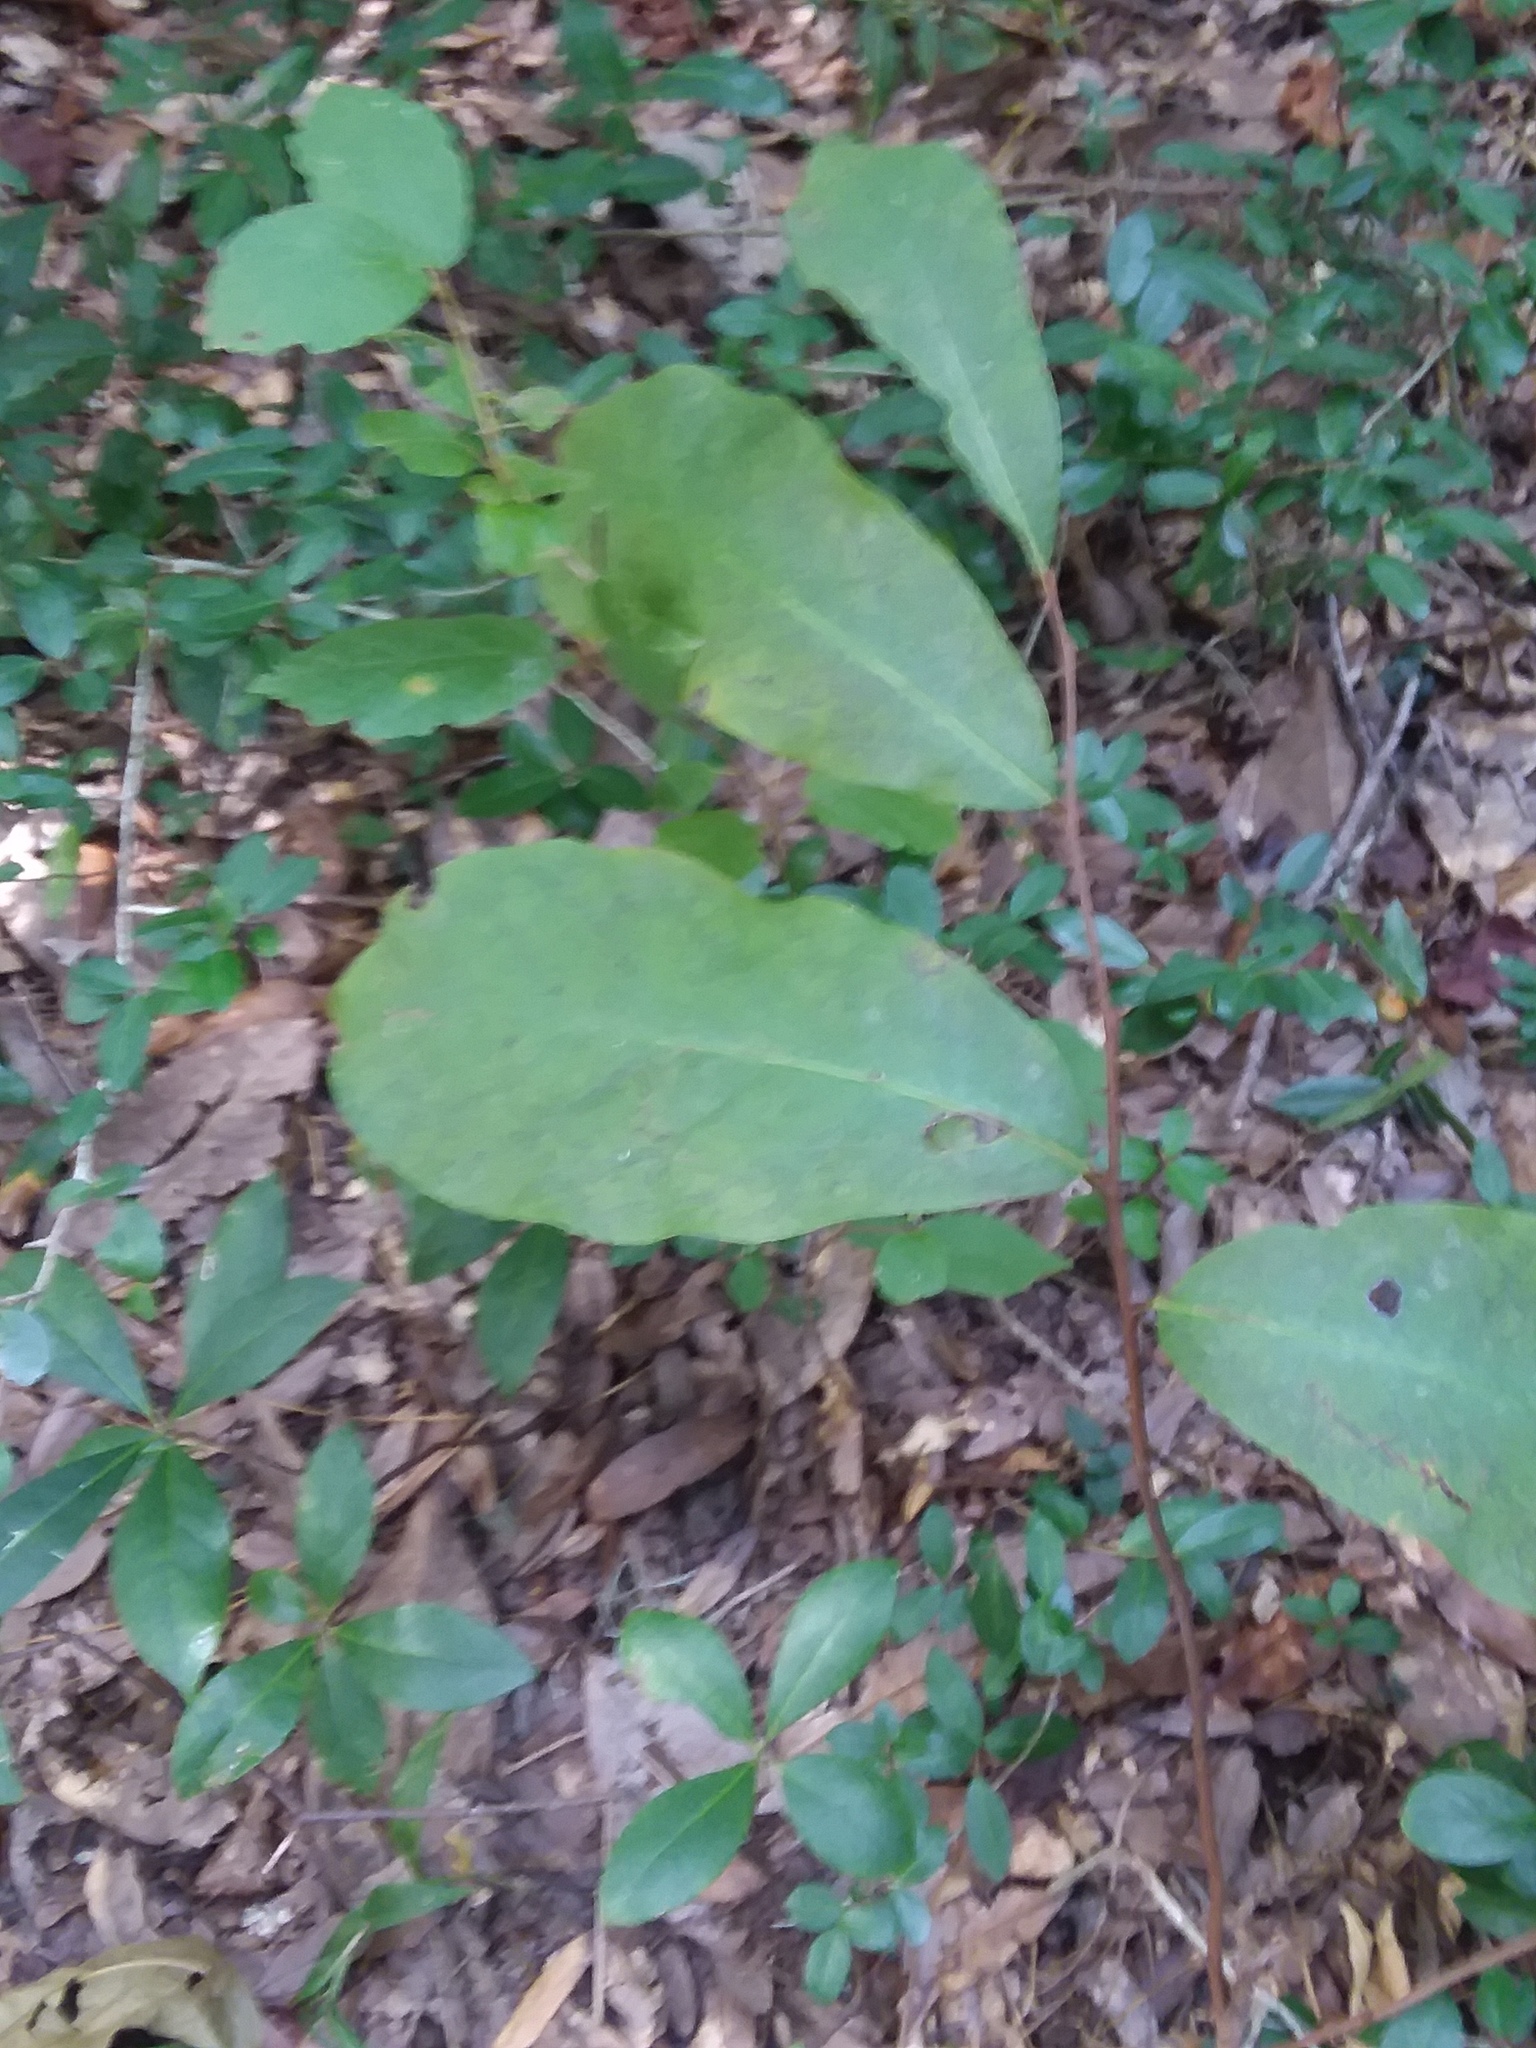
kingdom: Plantae
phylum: Tracheophyta
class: Magnoliopsida
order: Magnoliales
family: Annonaceae
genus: Asimina
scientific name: Asimina parviflora
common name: Dwarf pawpaw
